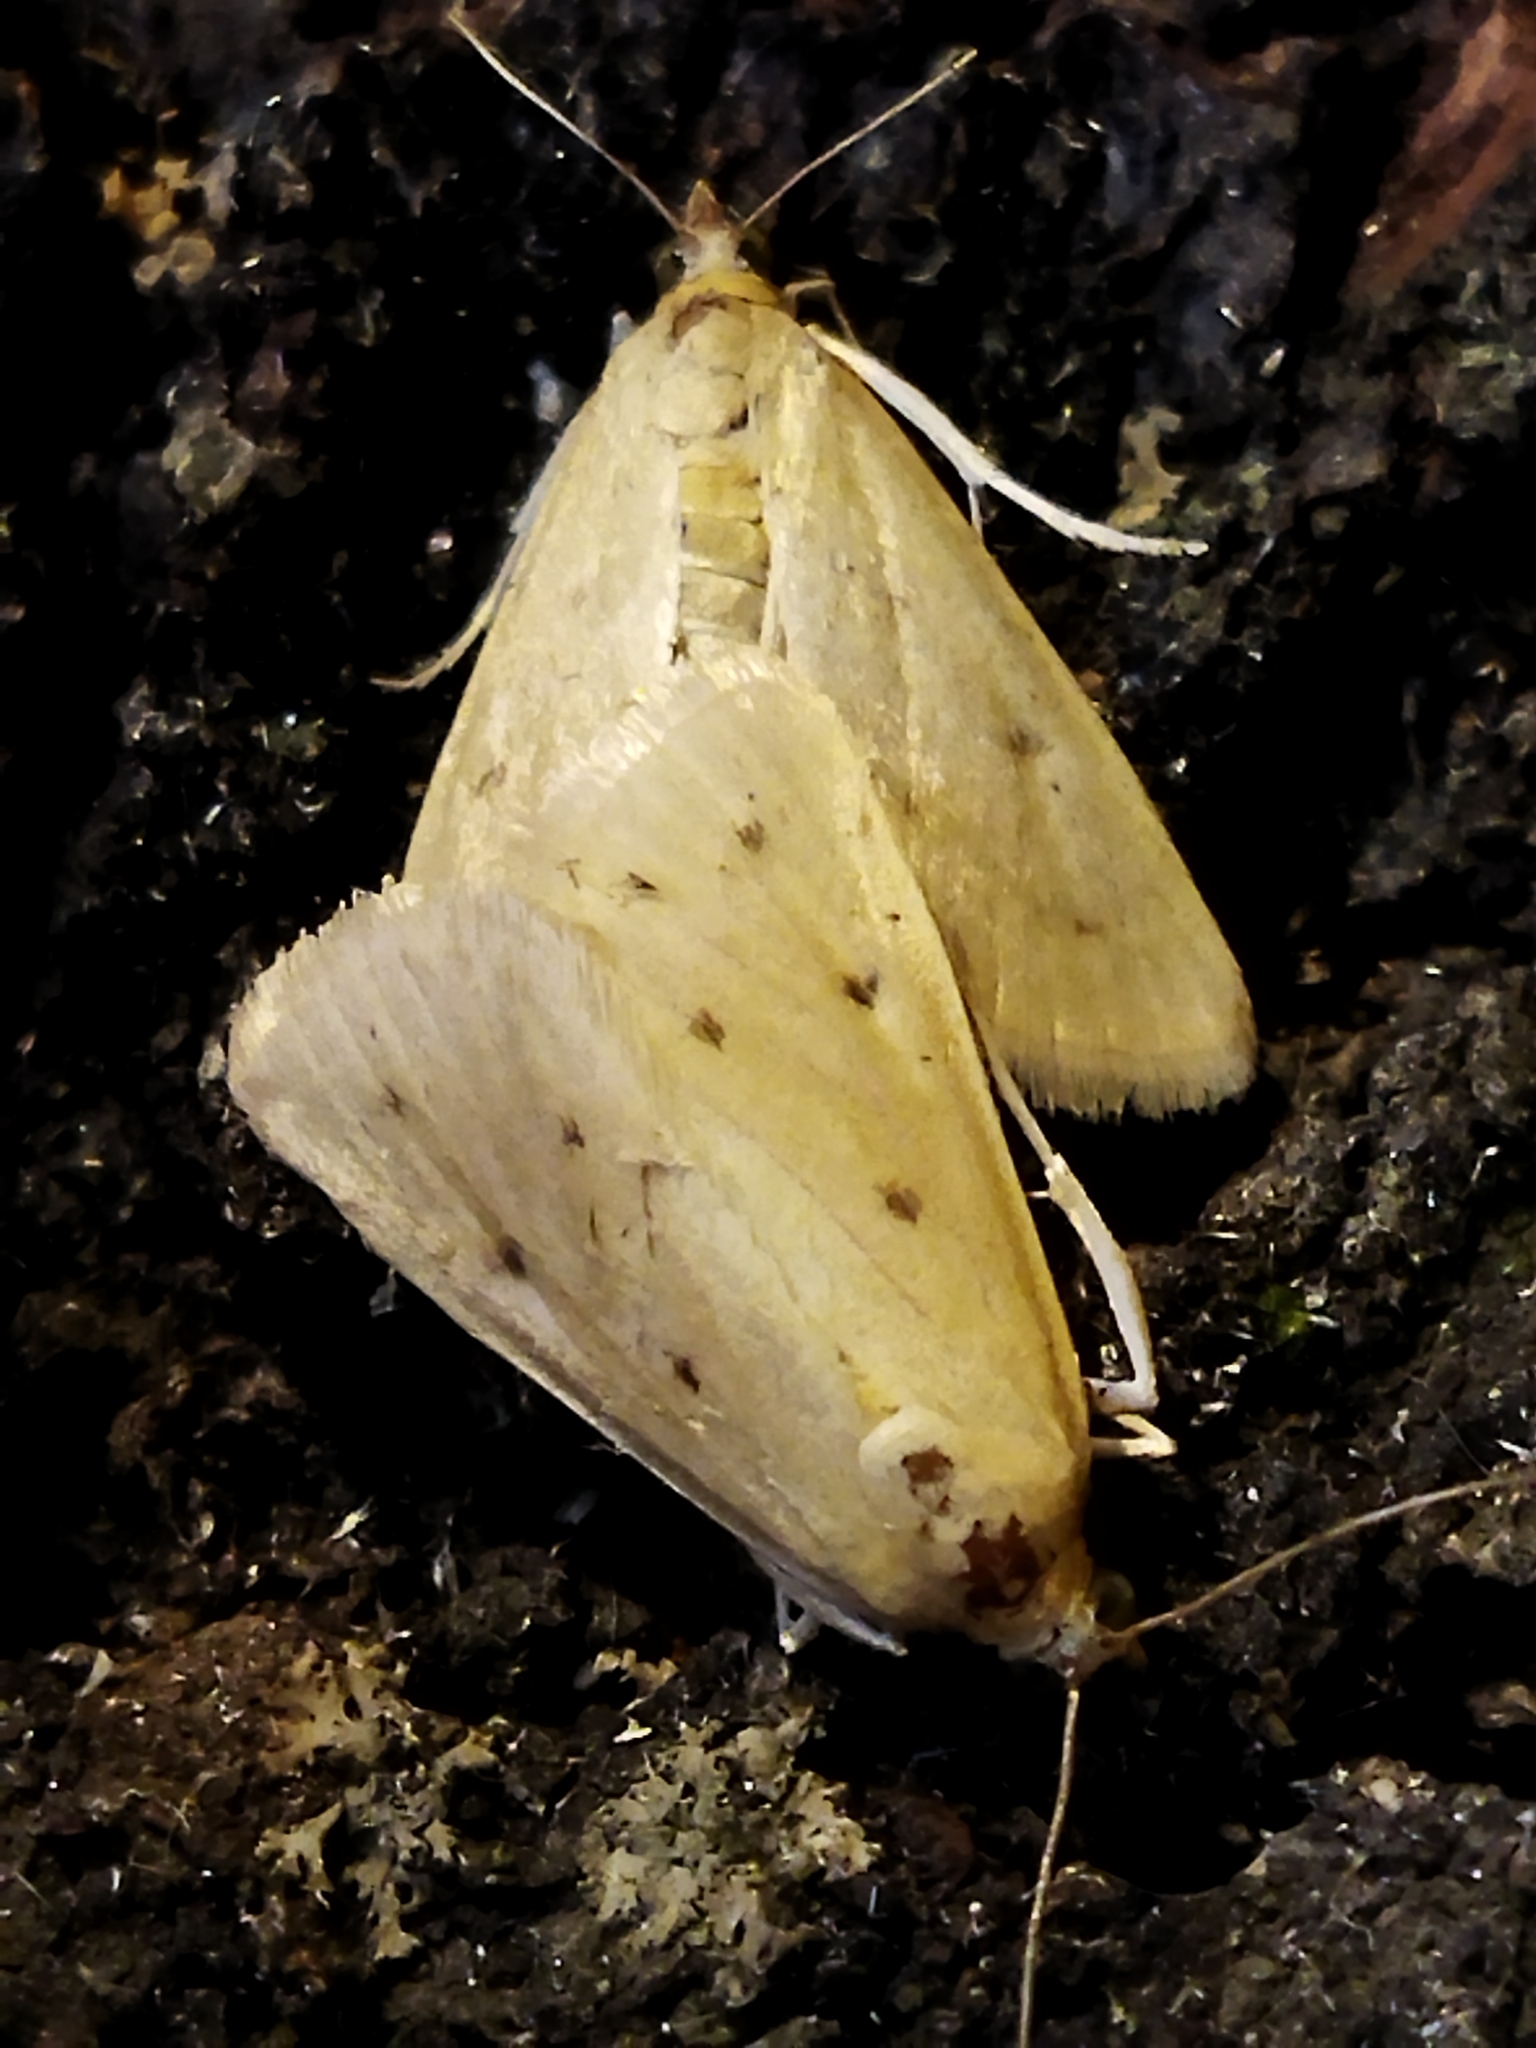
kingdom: Animalia
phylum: Arthropoda
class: Insecta
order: Lepidoptera
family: Crambidae
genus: Achyra
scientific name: Achyra nudalis
